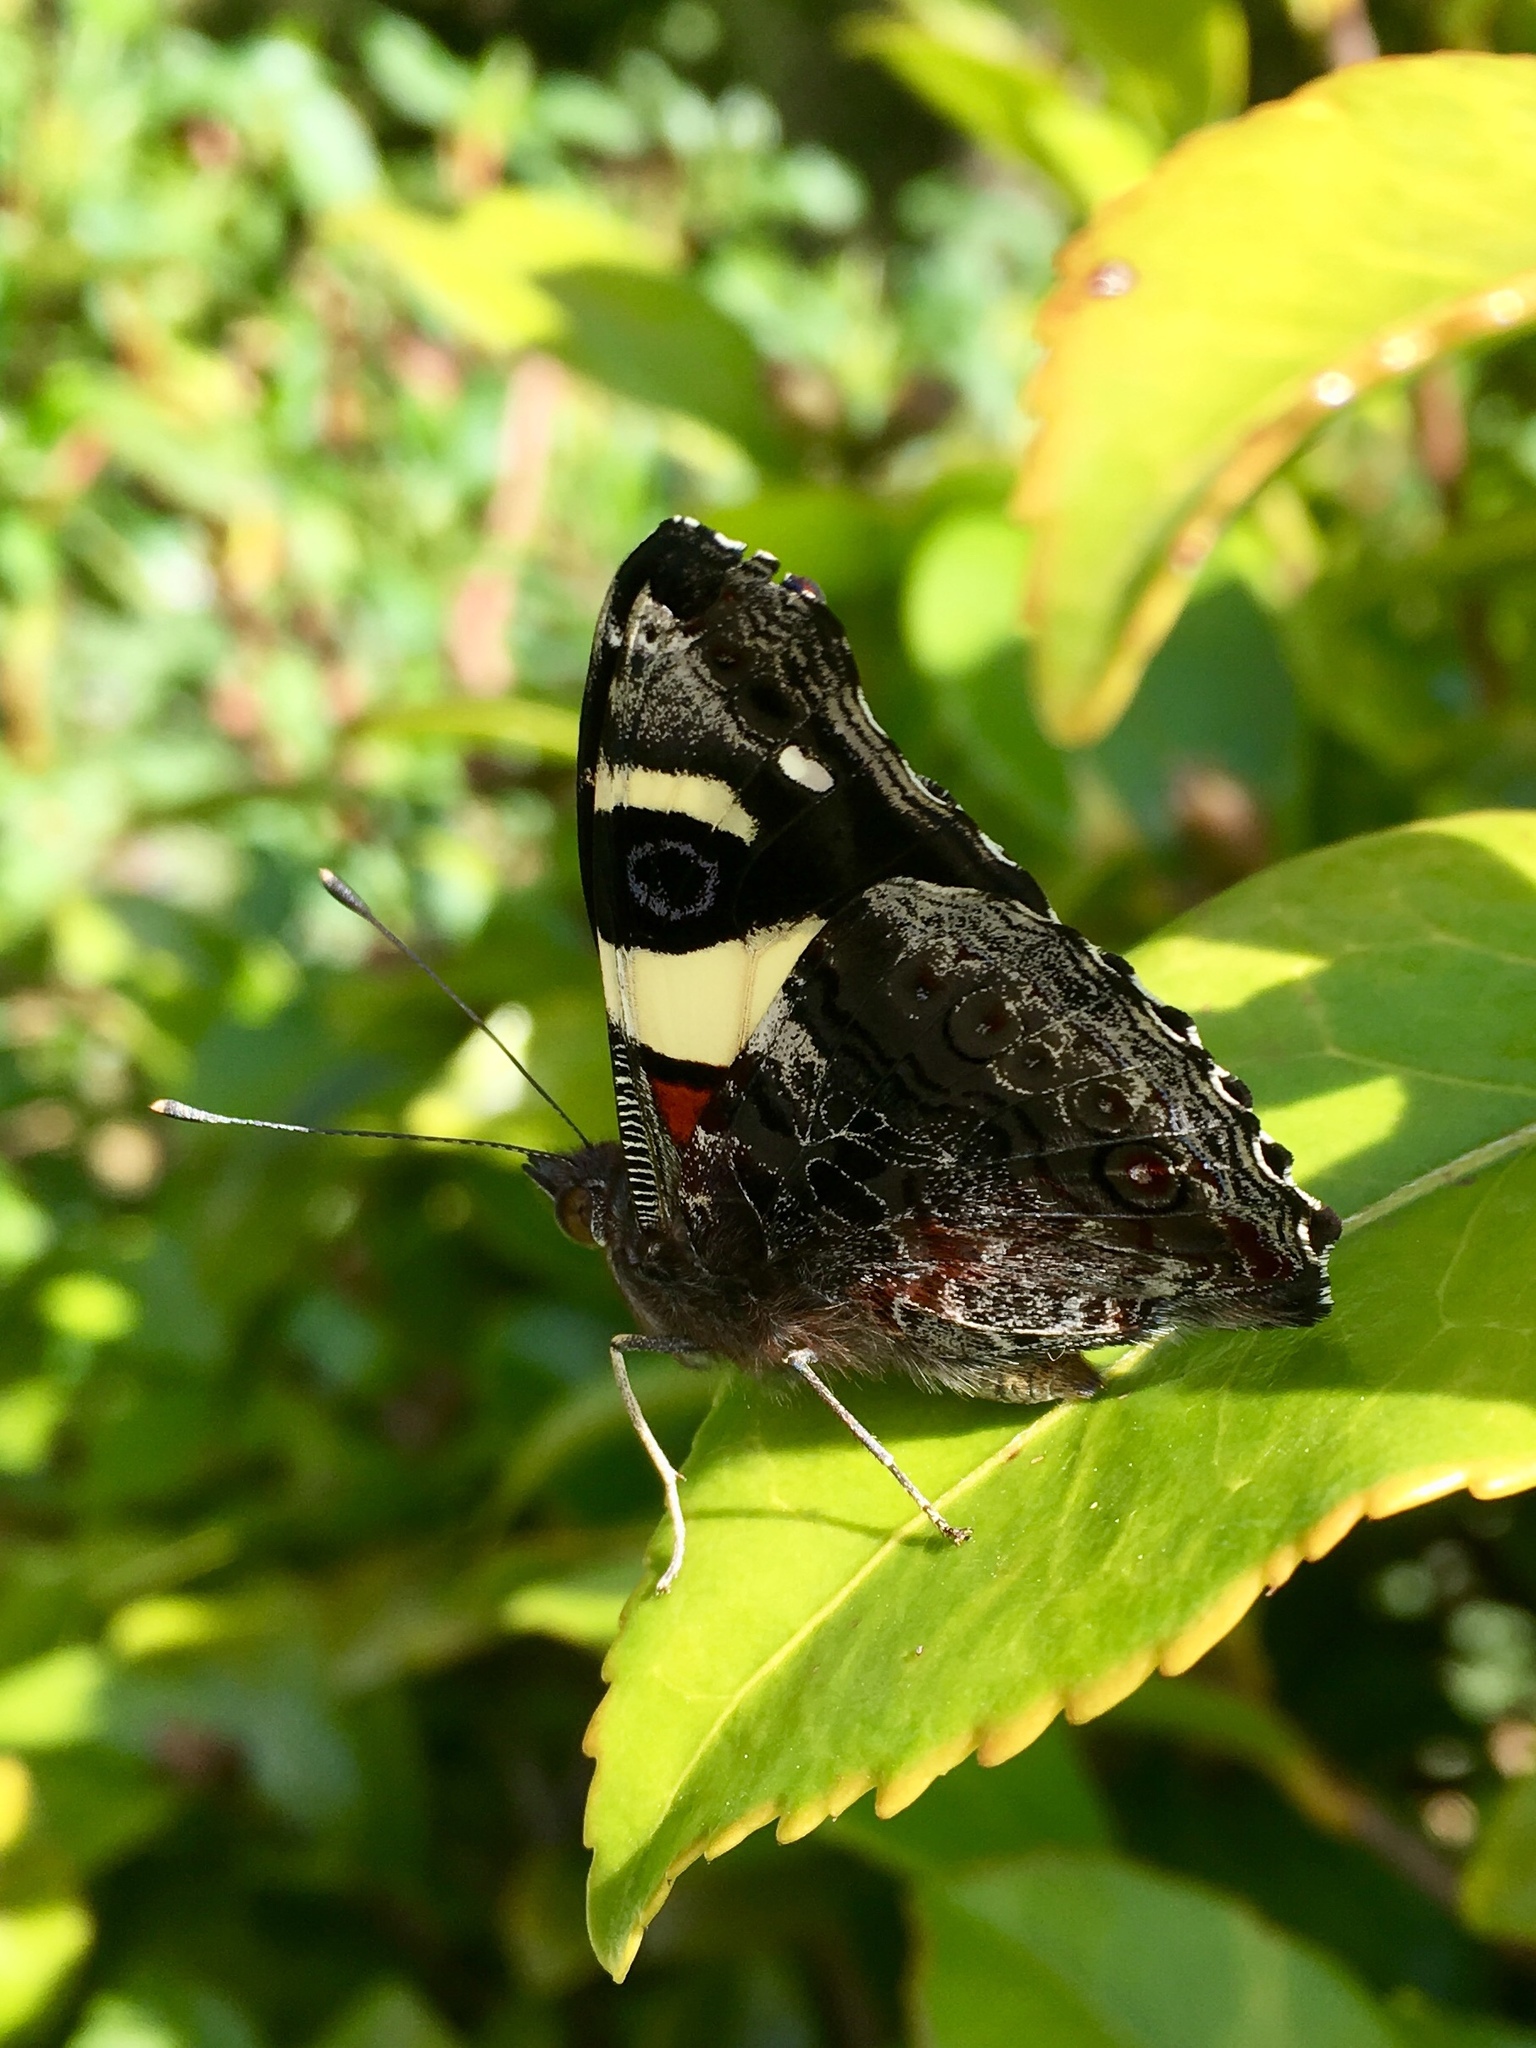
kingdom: Animalia
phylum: Arthropoda
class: Insecta
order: Lepidoptera
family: Nymphalidae
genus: Vanessa
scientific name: Vanessa itea
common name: Yellow admiral
